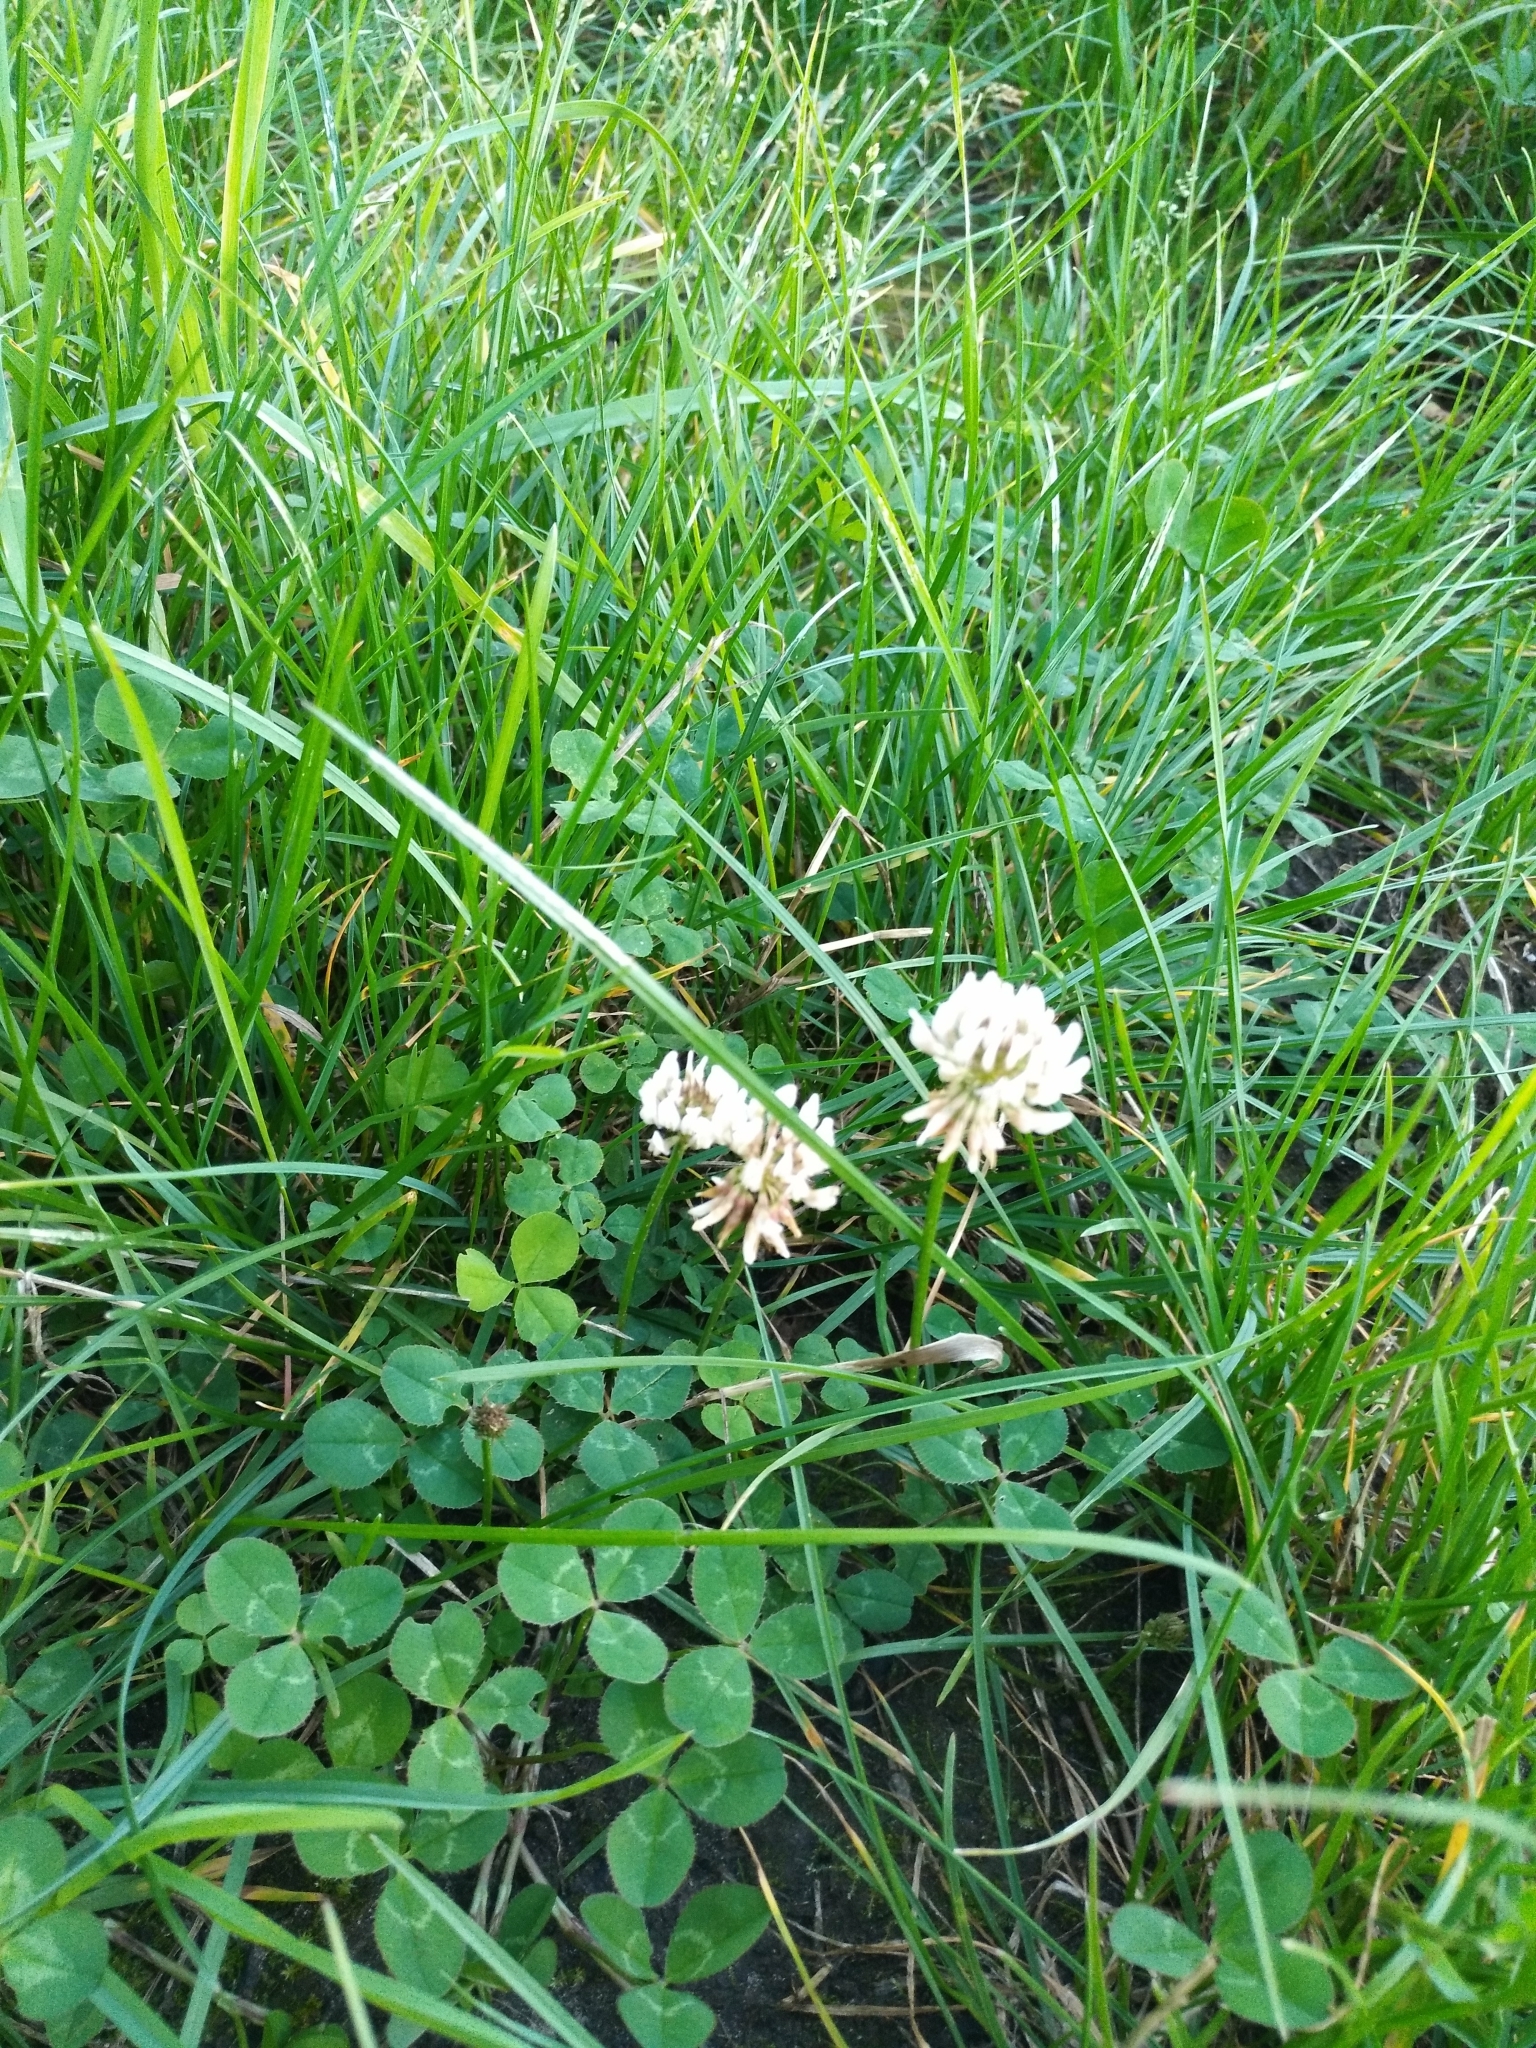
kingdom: Plantae
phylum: Tracheophyta
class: Magnoliopsida
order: Fabales
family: Fabaceae
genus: Trifolium
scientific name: Trifolium repens
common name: White clover
